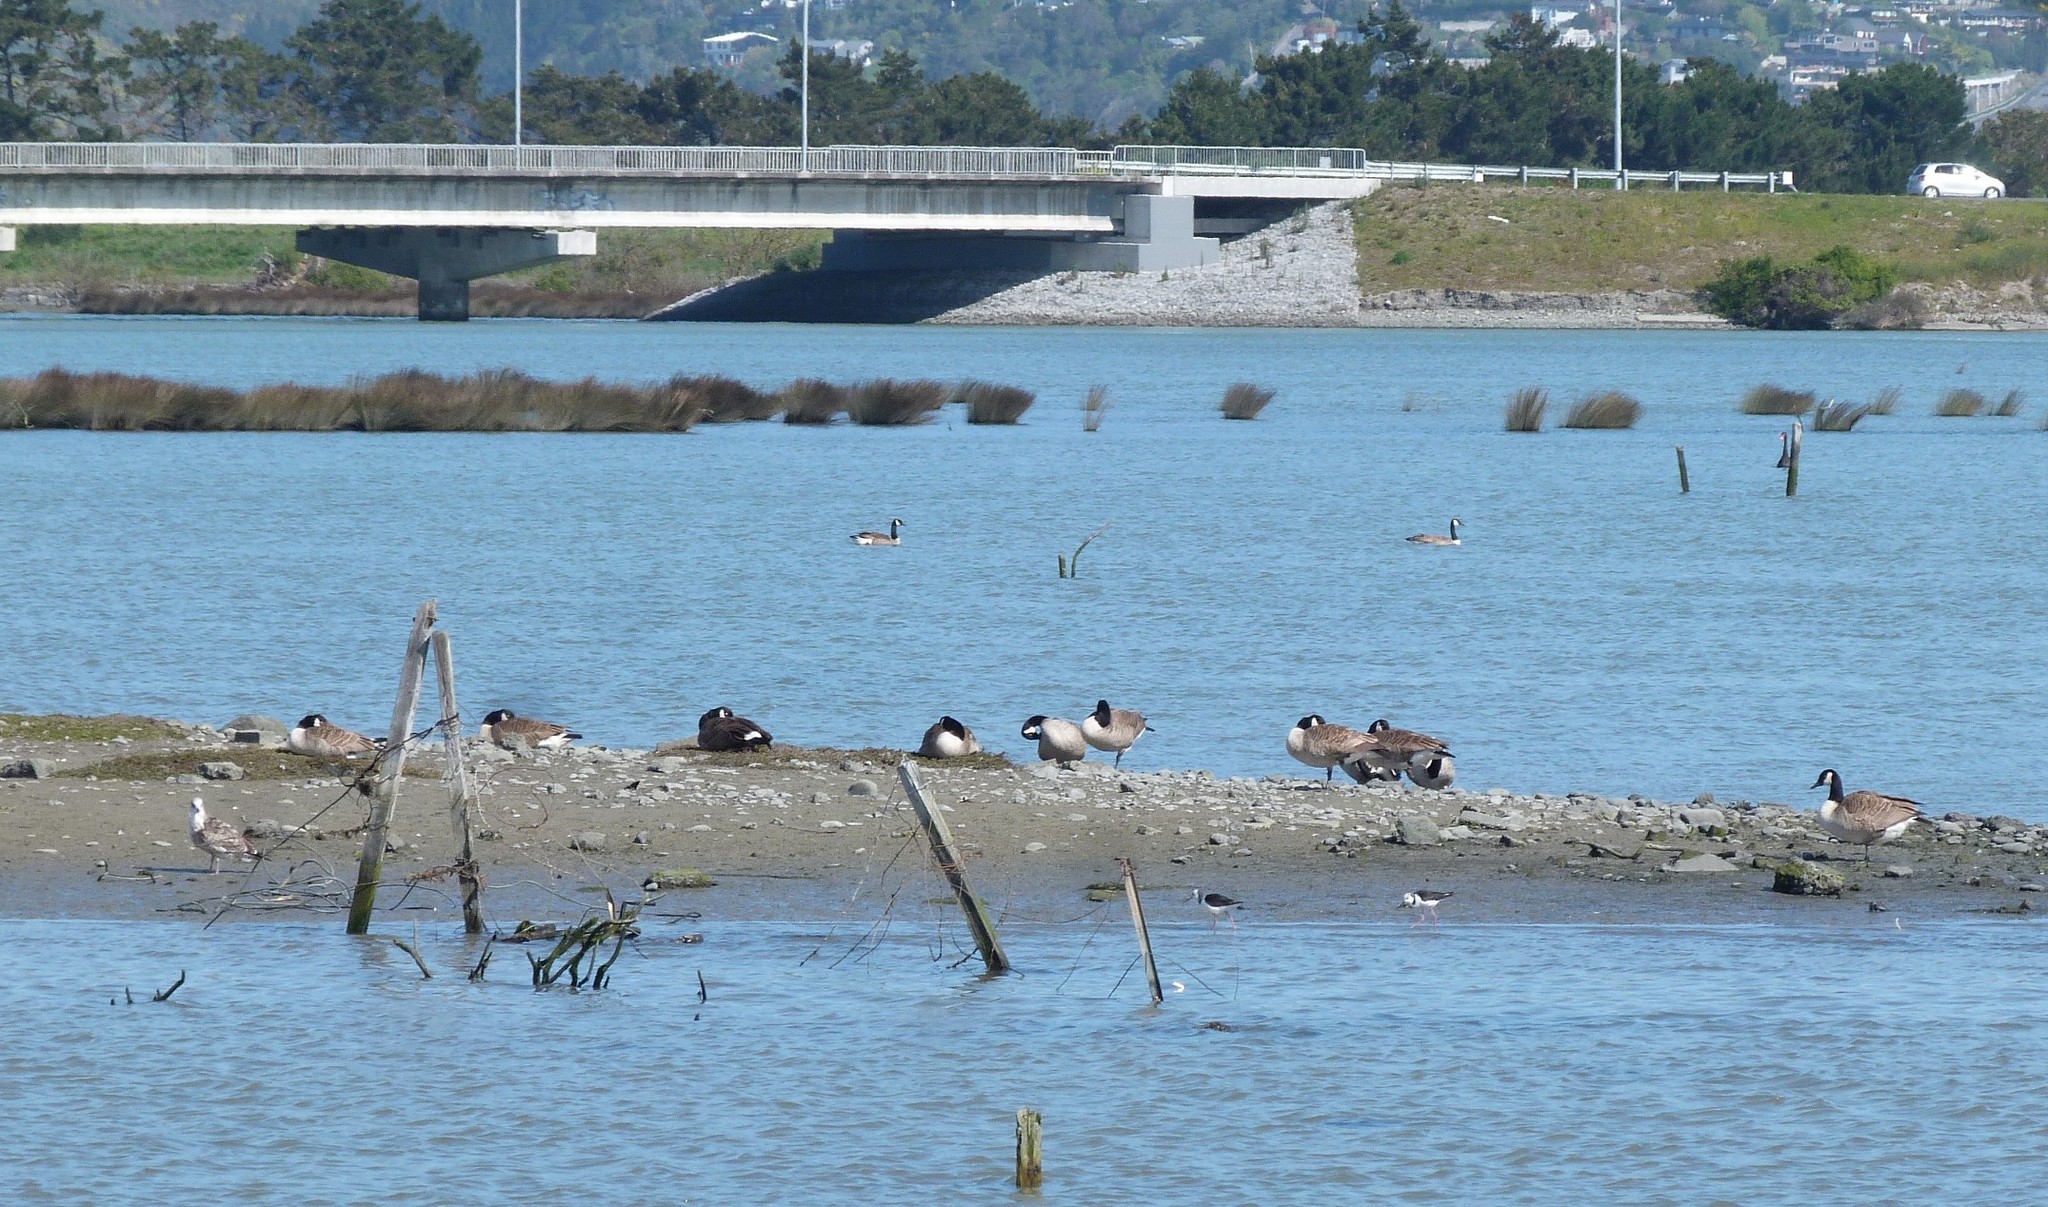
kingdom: Animalia
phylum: Chordata
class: Aves
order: Anseriformes
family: Anatidae
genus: Branta
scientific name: Branta canadensis
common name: Canada goose
